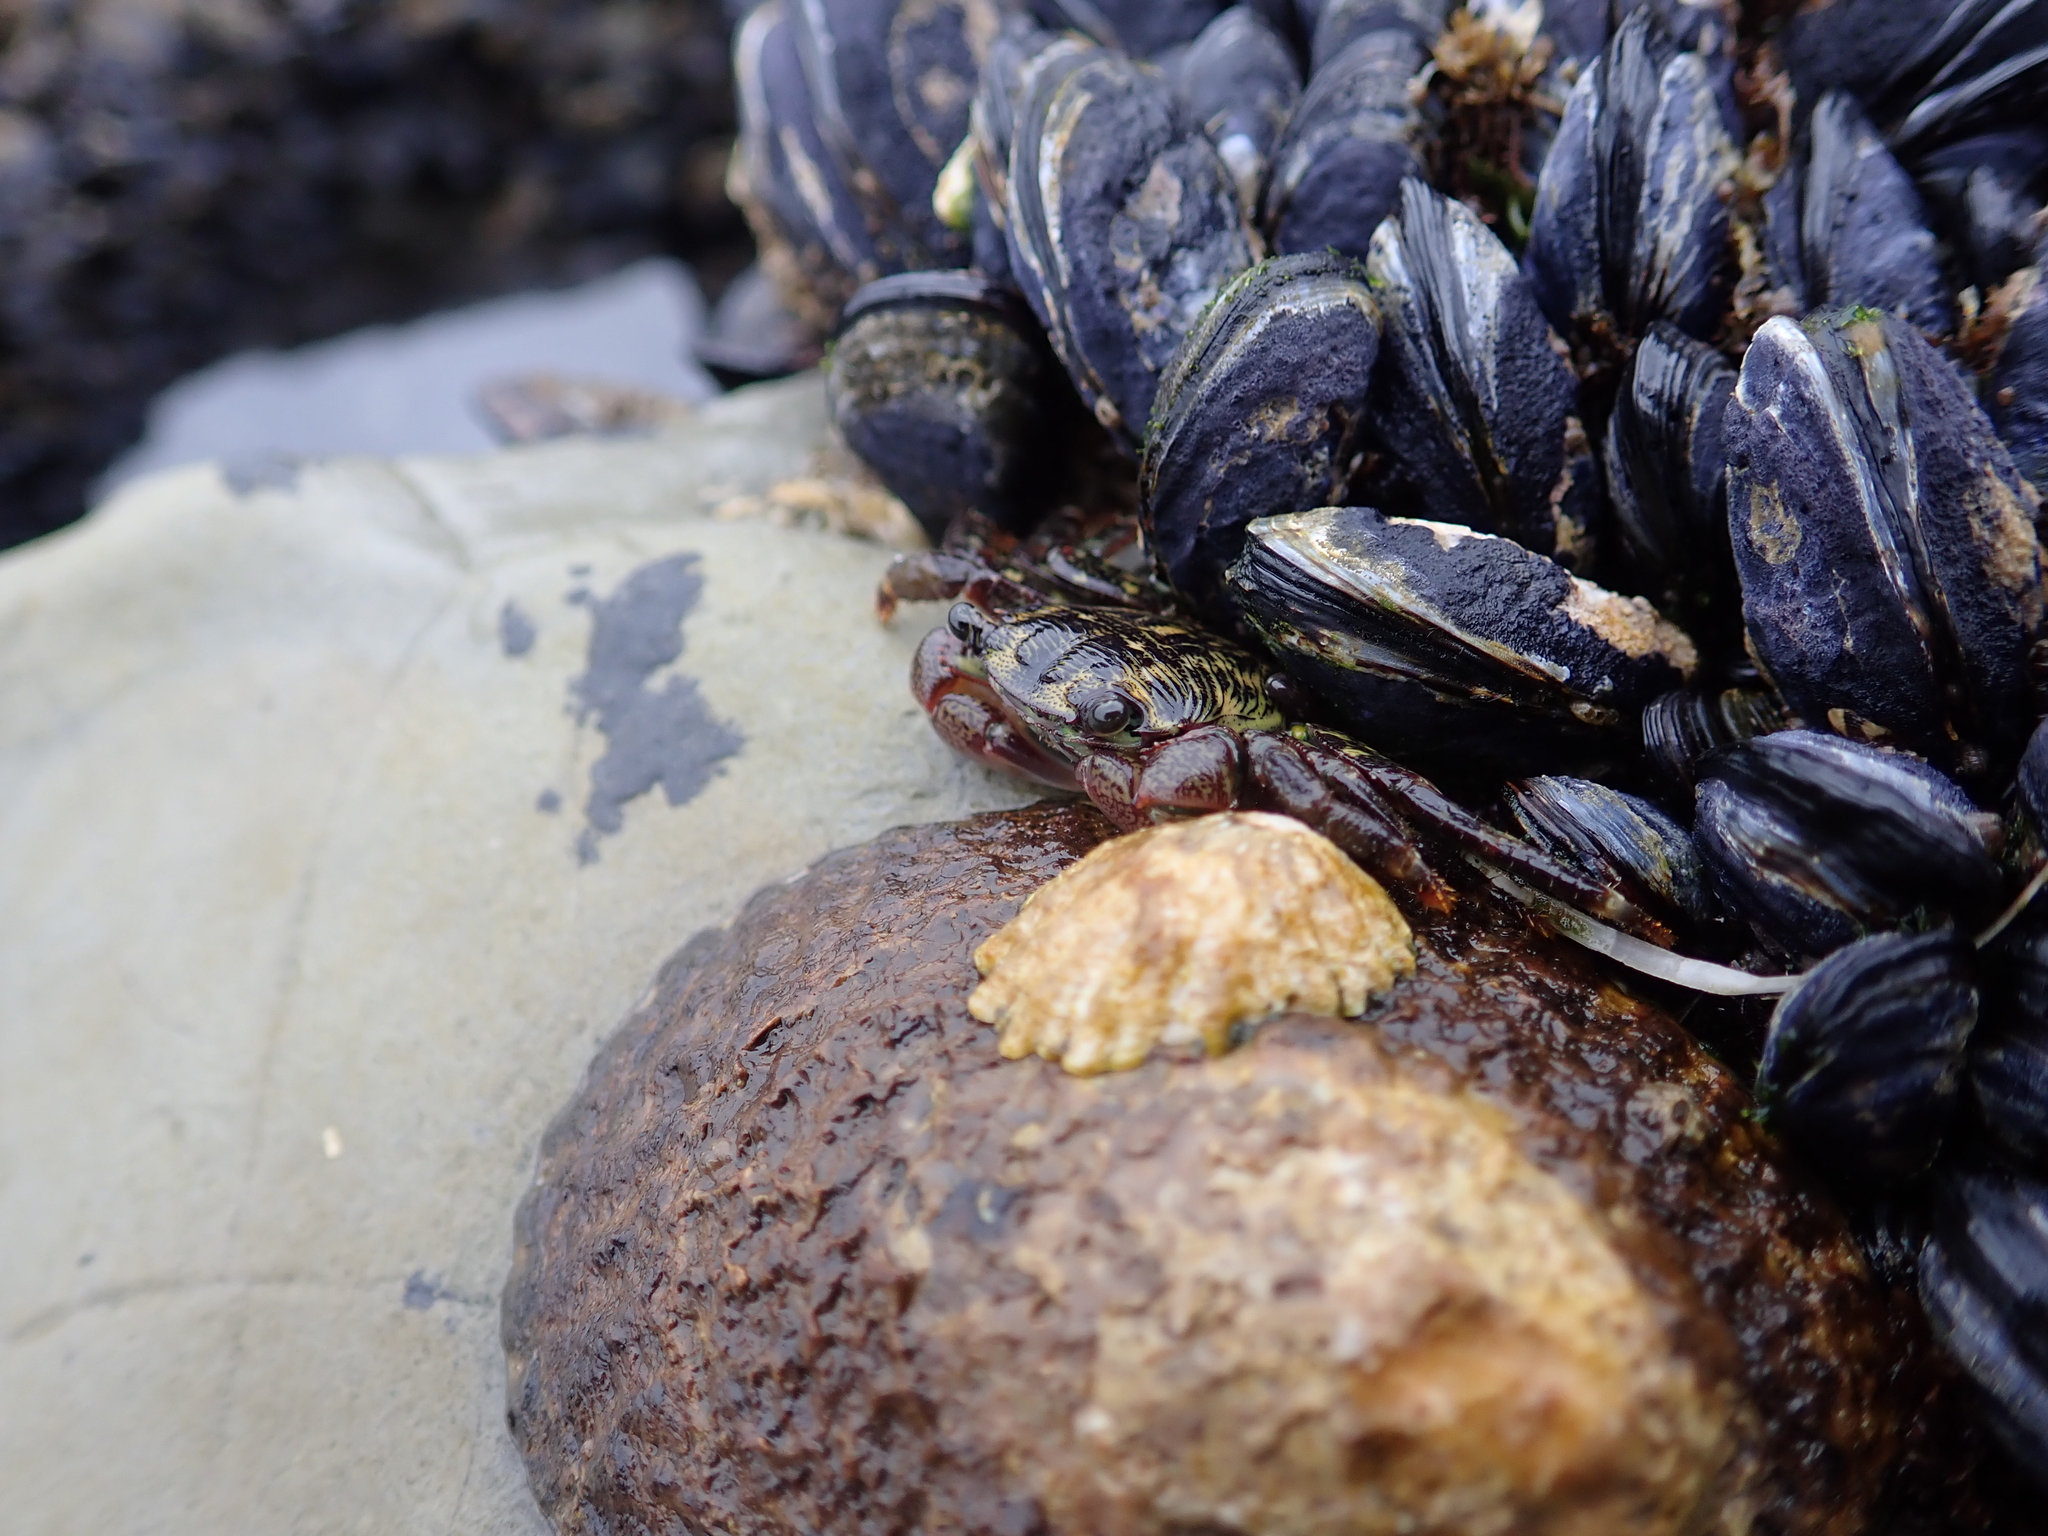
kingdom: Animalia
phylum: Mollusca
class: Bivalvia
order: Mytilida
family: Mytilidae
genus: Mytilus
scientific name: Mytilus californianus
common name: California mussel
